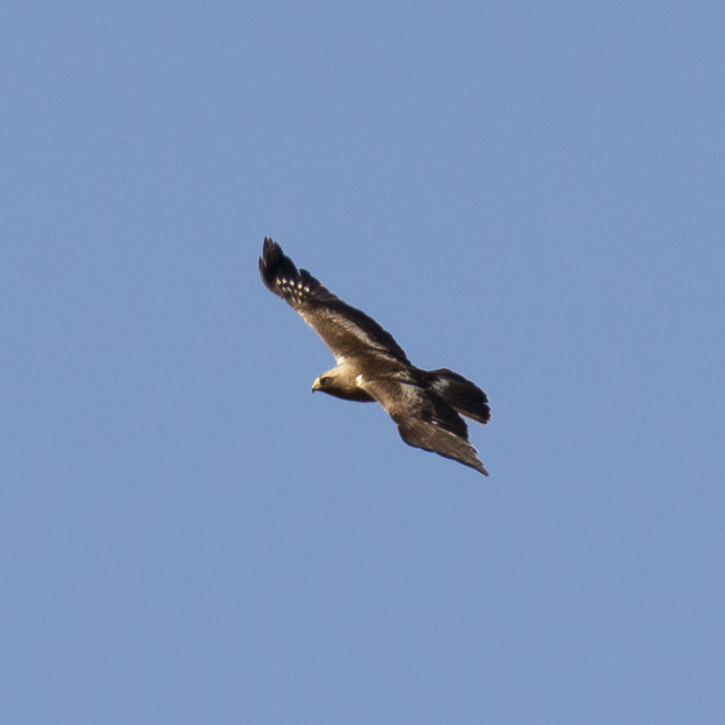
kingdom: Animalia
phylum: Chordata
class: Aves
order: Accipitriformes
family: Accipitridae
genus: Hieraaetus
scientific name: Hieraaetus pennatus
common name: Booted eagle
